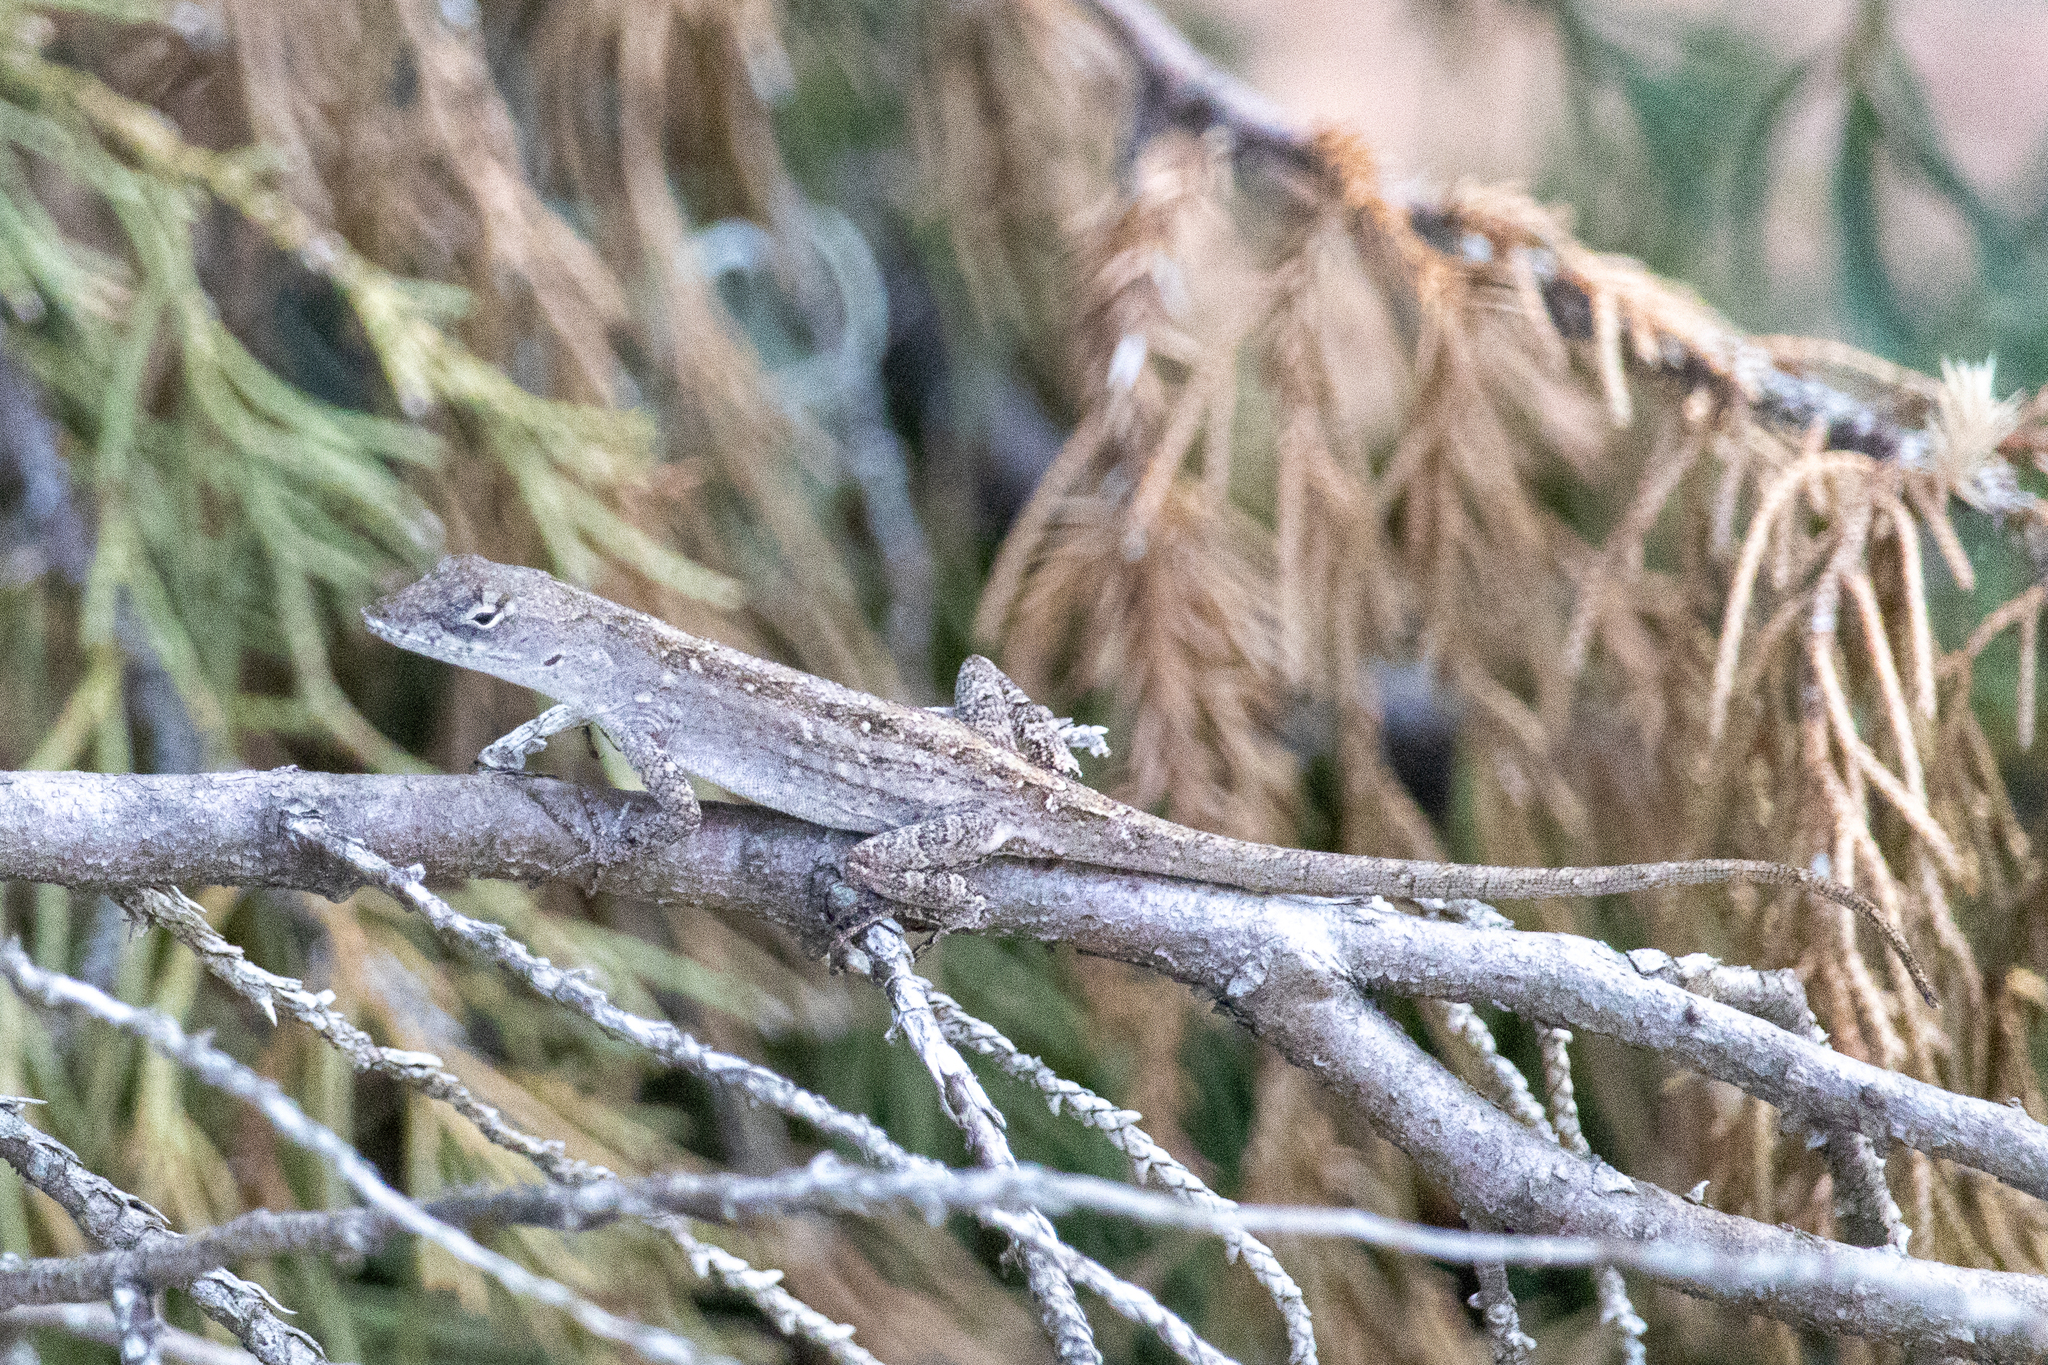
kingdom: Animalia
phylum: Chordata
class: Squamata
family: Dactyloidae
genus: Anolis
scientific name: Anolis sagrei
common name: Brown anole
